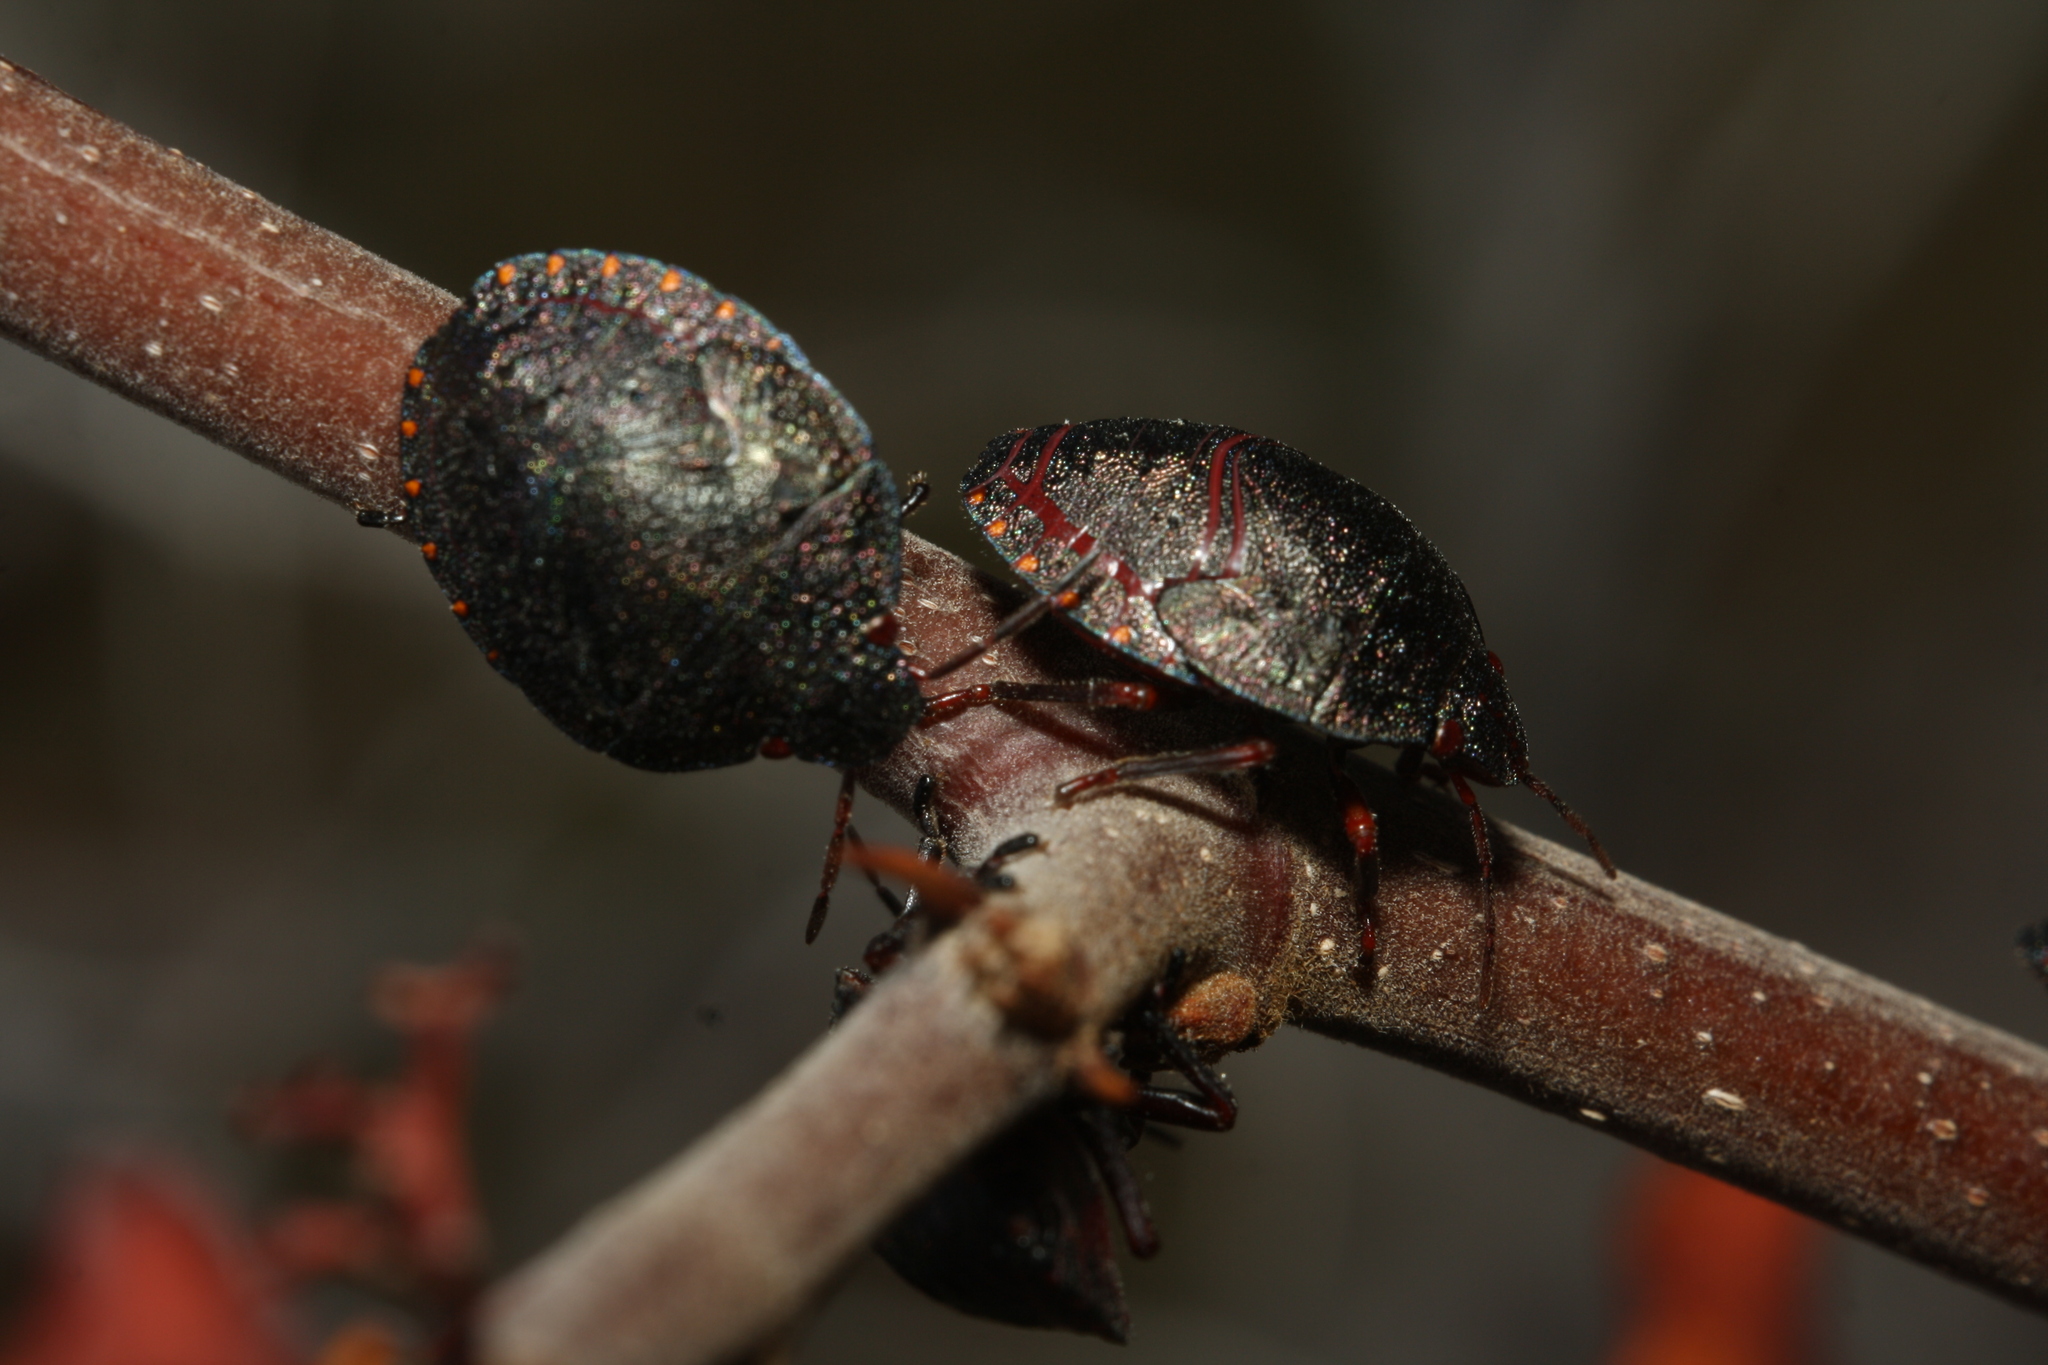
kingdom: Animalia
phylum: Arthropoda
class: Insecta
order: Hemiptera
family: Scutelleridae
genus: Solenosthedium
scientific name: Solenosthedium bilunatum
